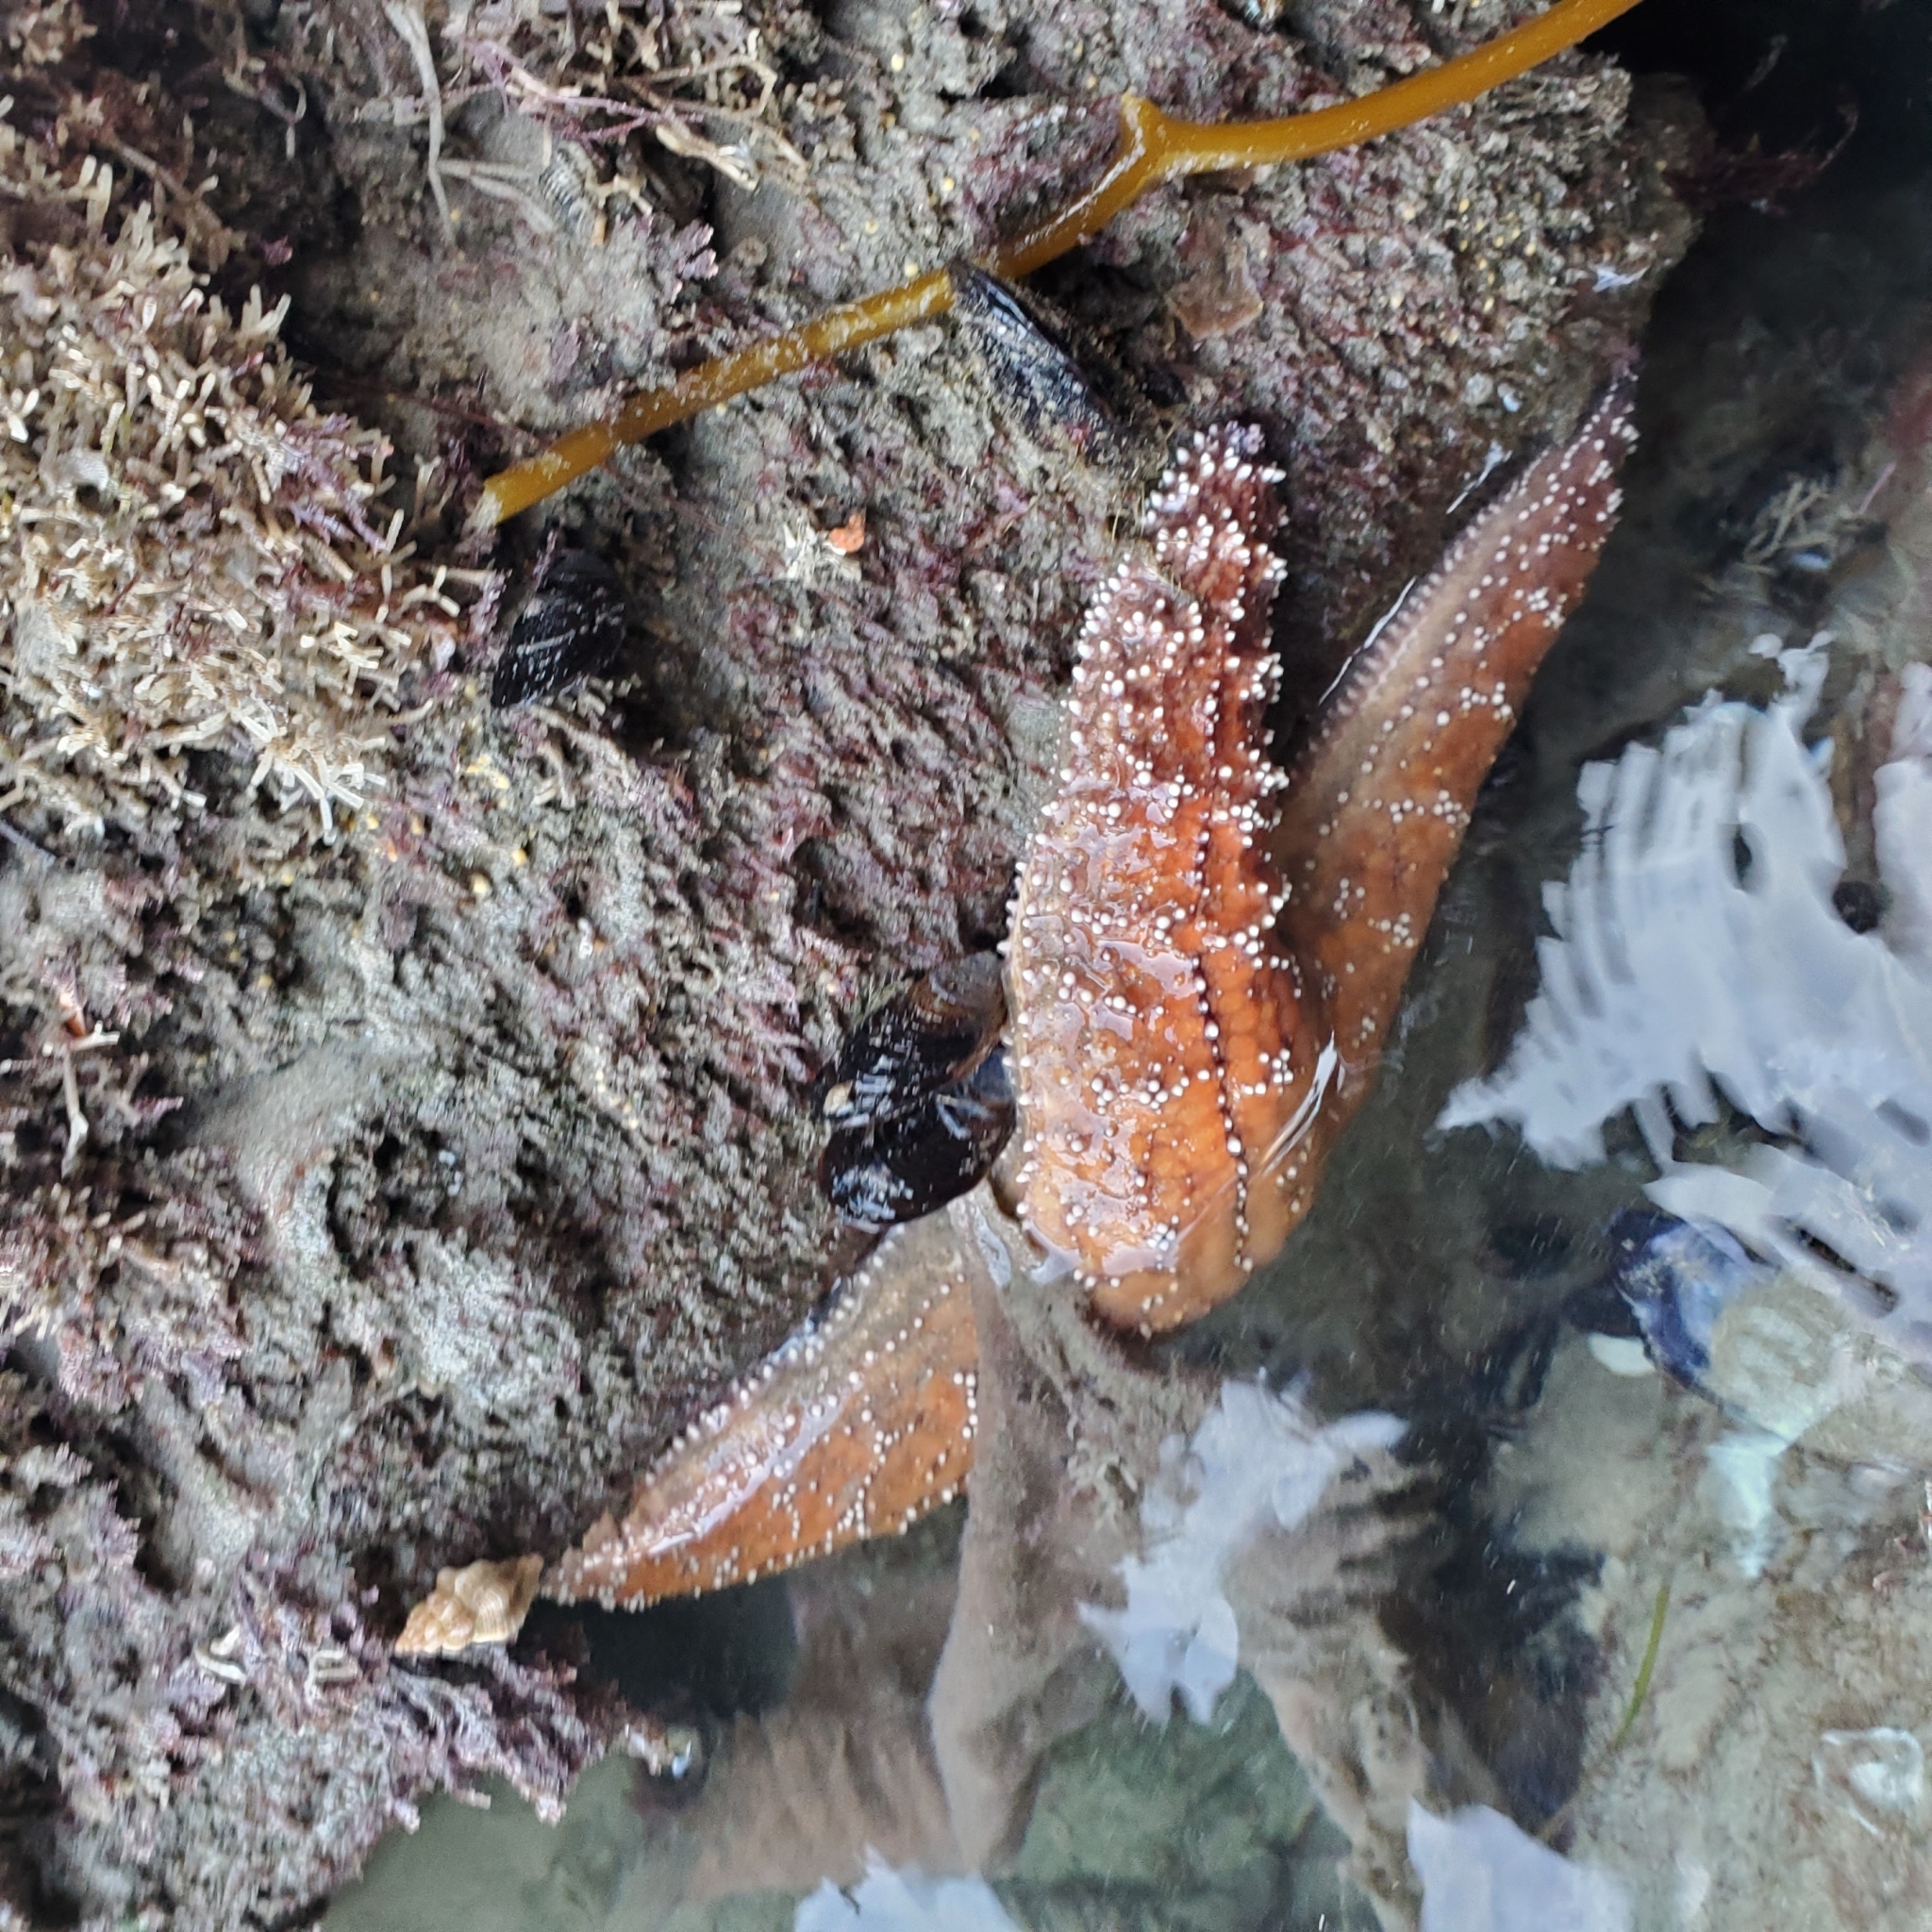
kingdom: Animalia
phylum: Echinodermata
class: Asteroidea
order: Forcipulatida
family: Asteriidae
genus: Pisaster
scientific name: Pisaster ochraceus
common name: Ochre stars
